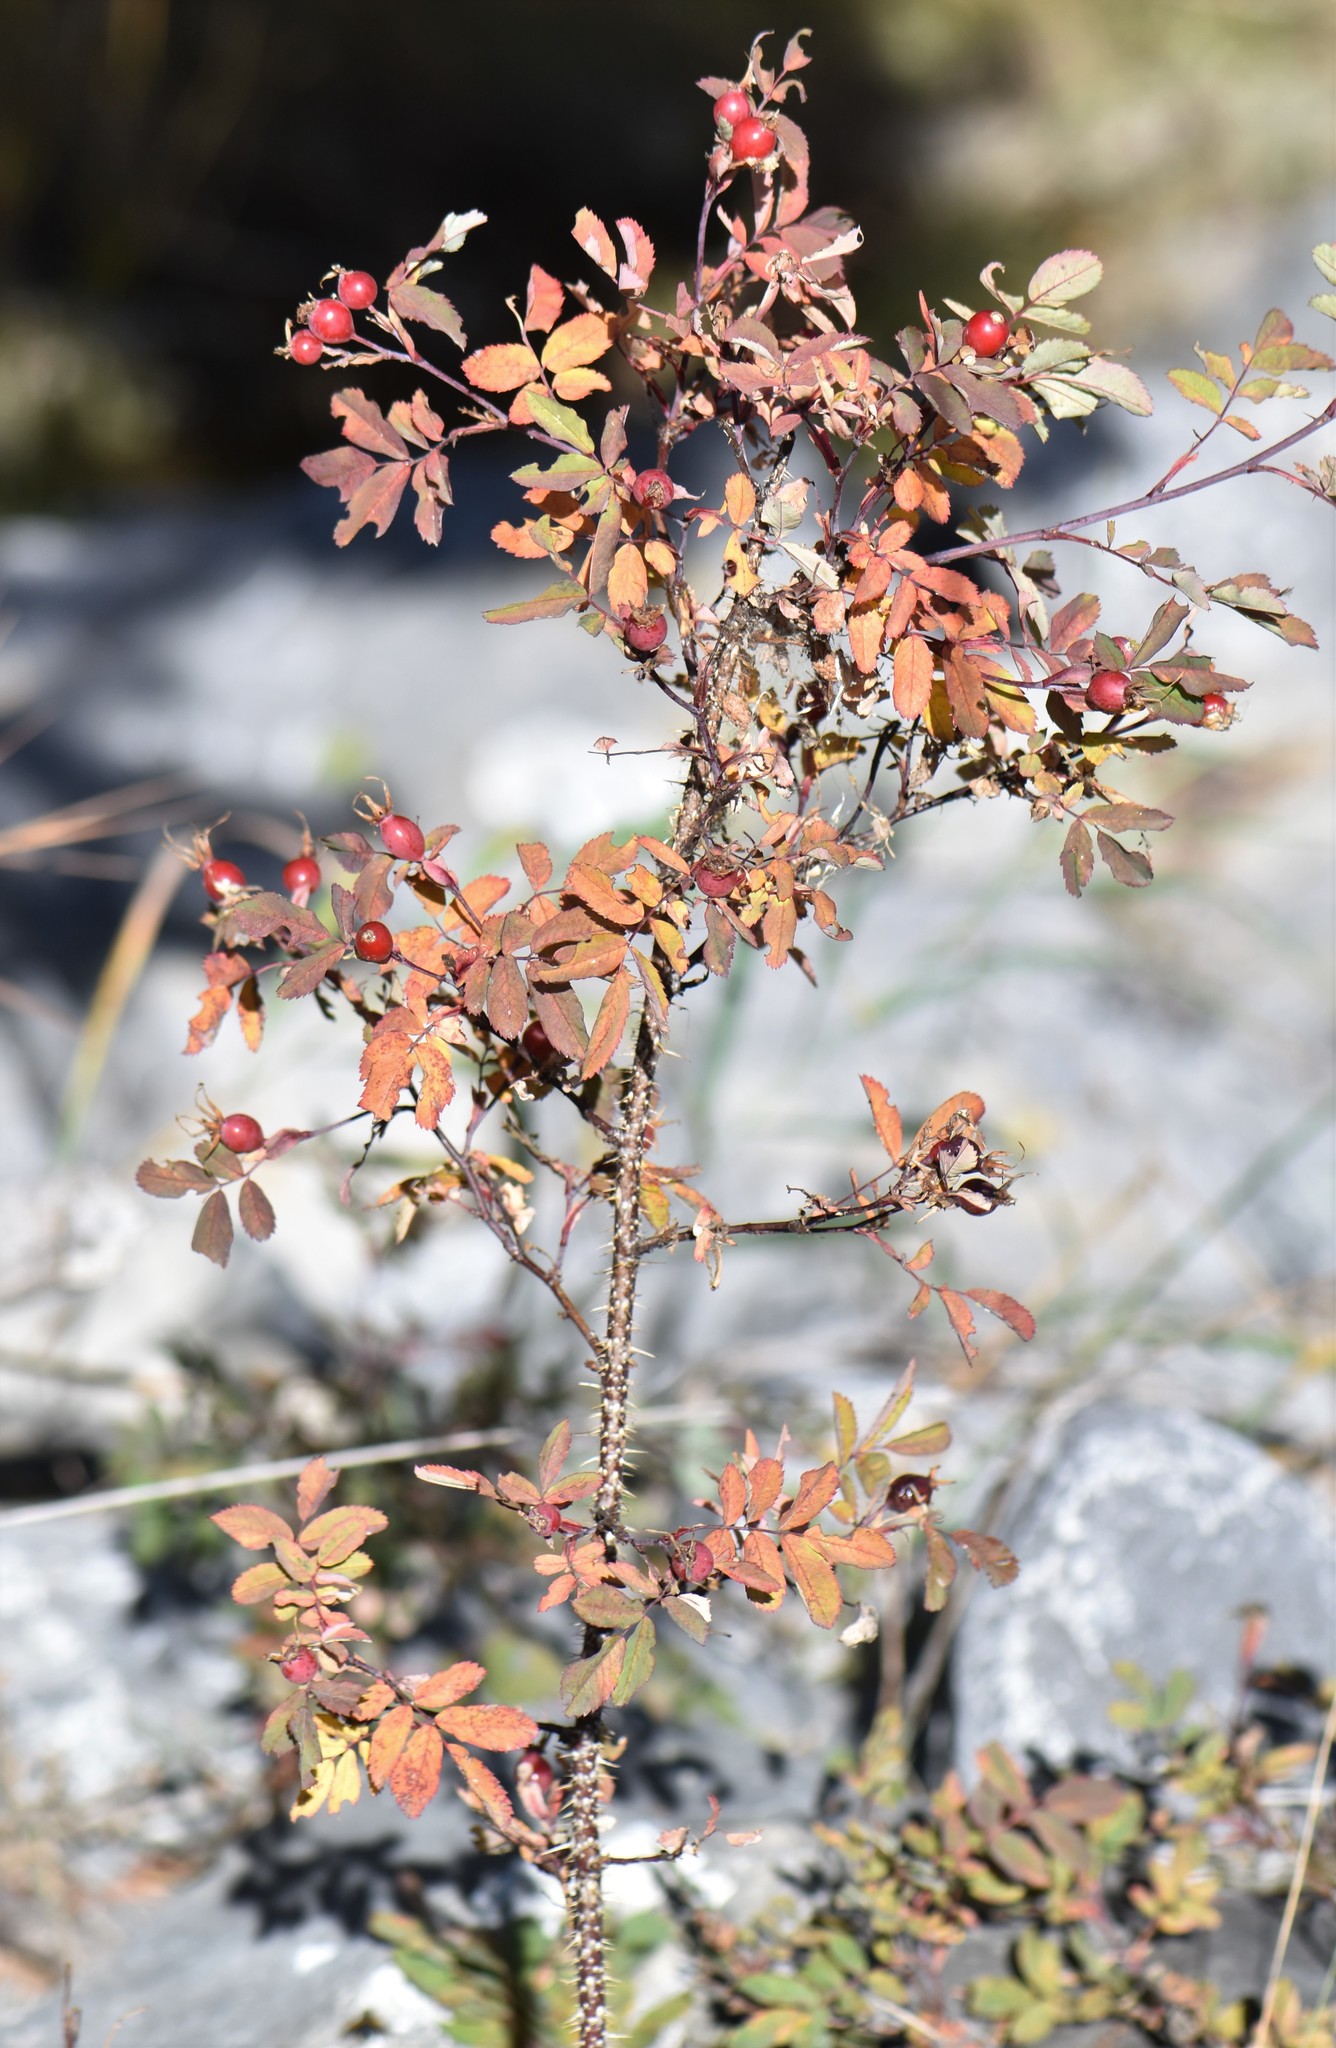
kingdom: Plantae
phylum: Tracheophyta
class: Magnoliopsida
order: Rosales
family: Rosaceae
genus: Rosa
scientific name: Rosa woodsii
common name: Woods's rose
